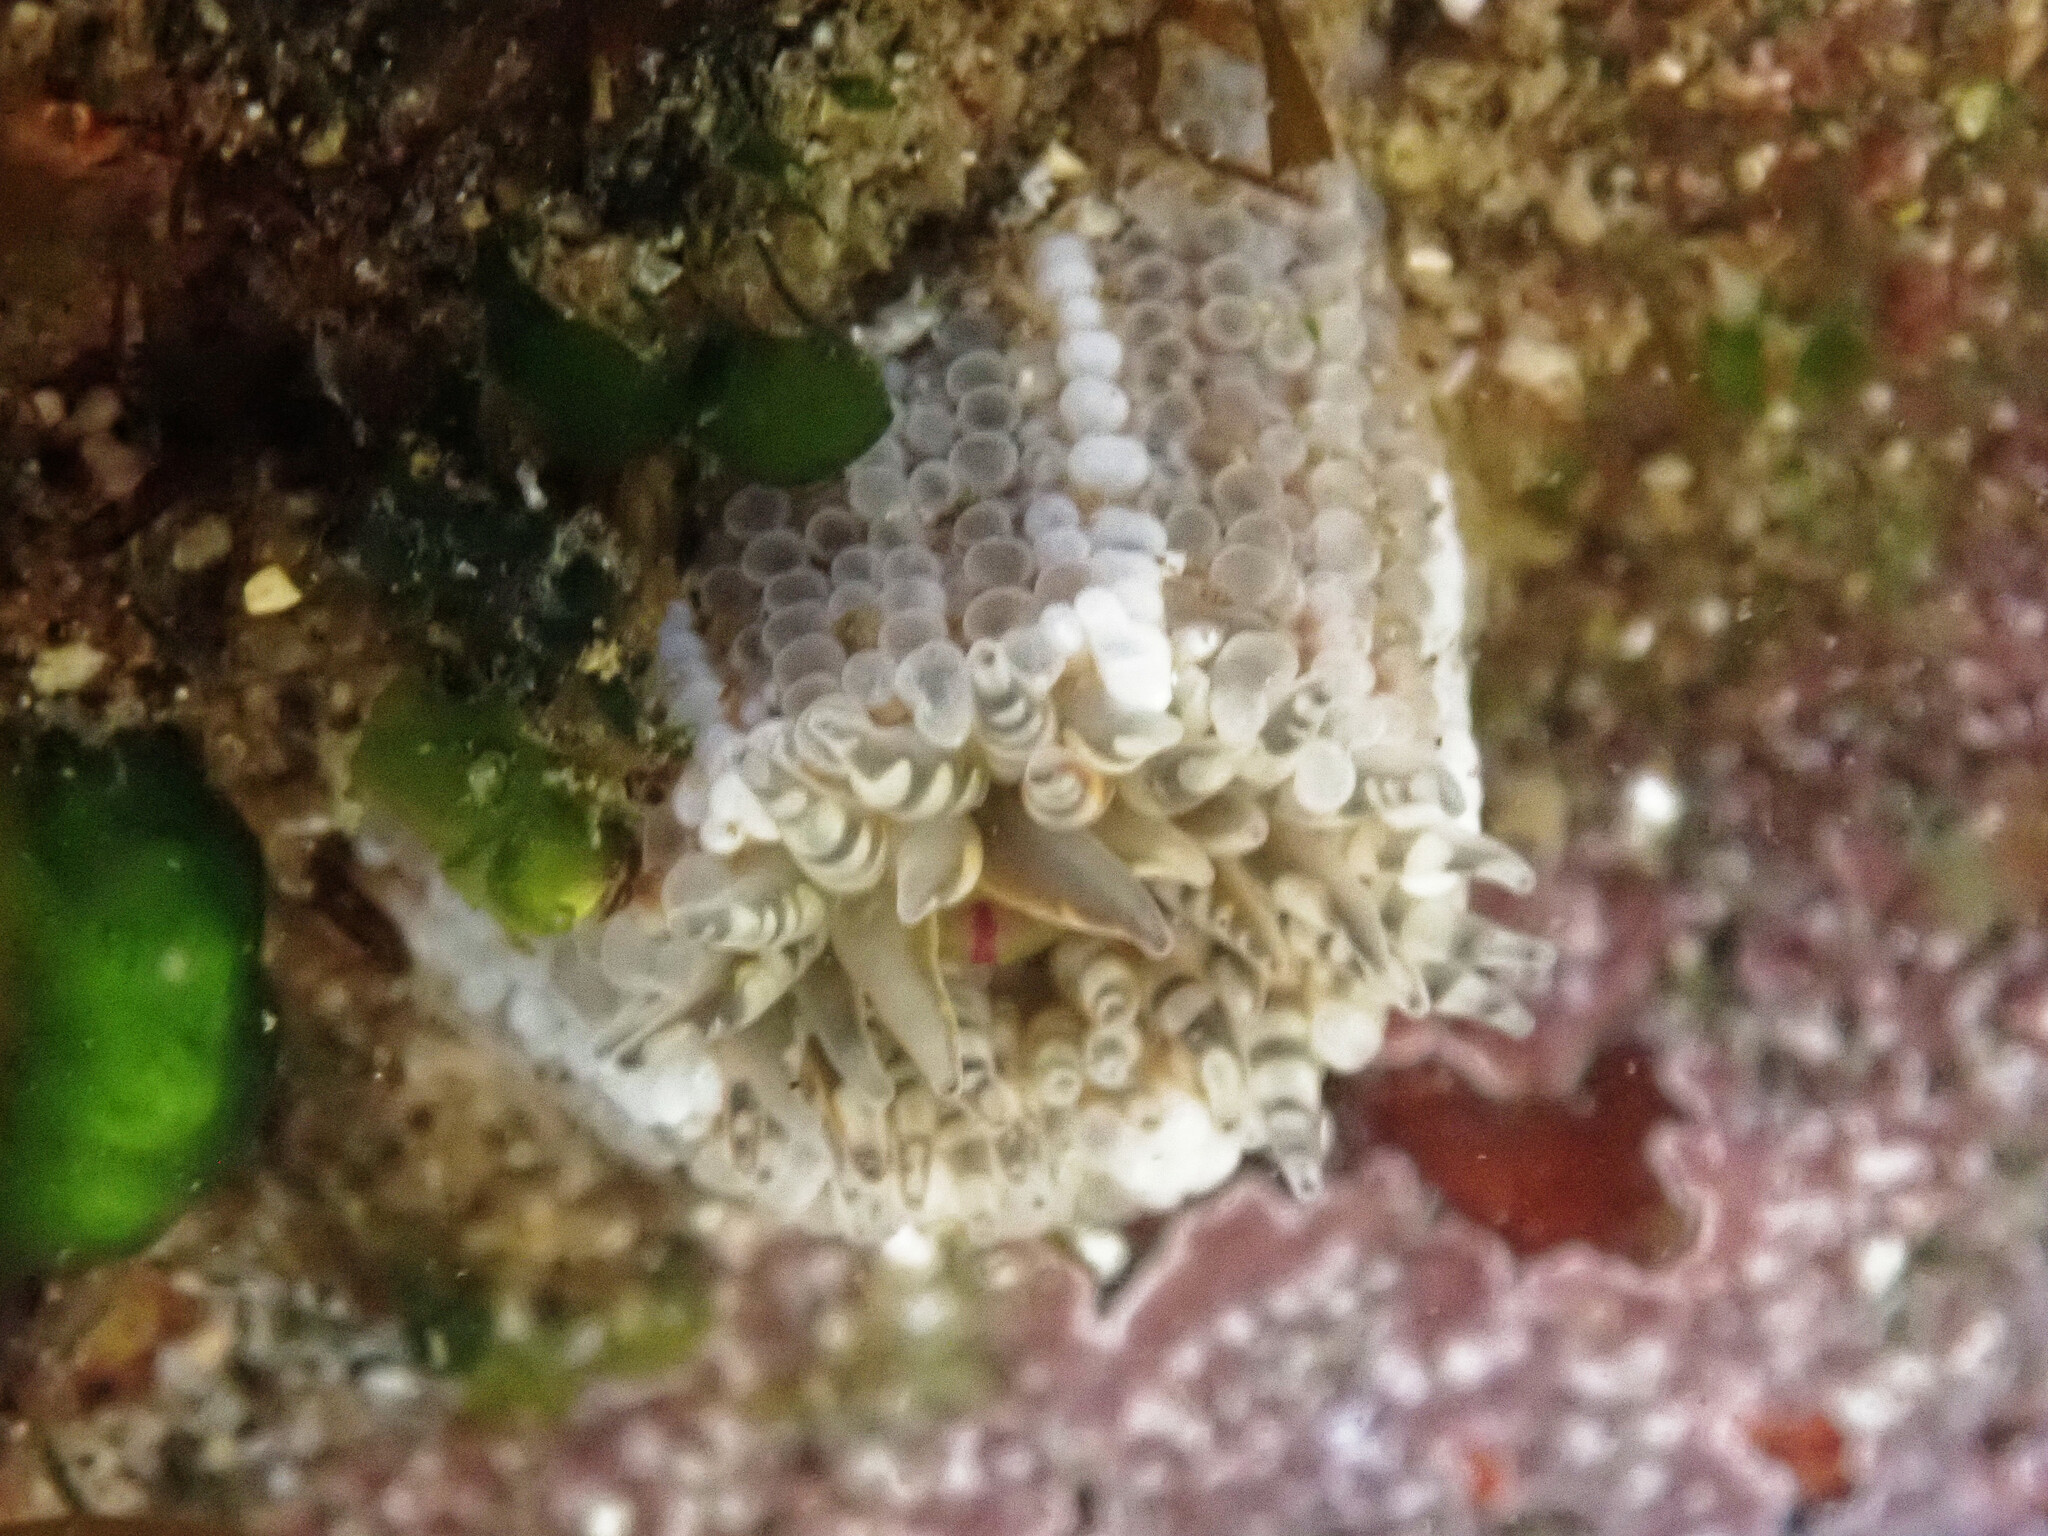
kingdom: Animalia
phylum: Cnidaria
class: Anthozoa
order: Actiniaria
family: Actiniidae
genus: Bunodactis
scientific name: Bunodactis verrucosa
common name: Gem anemone
